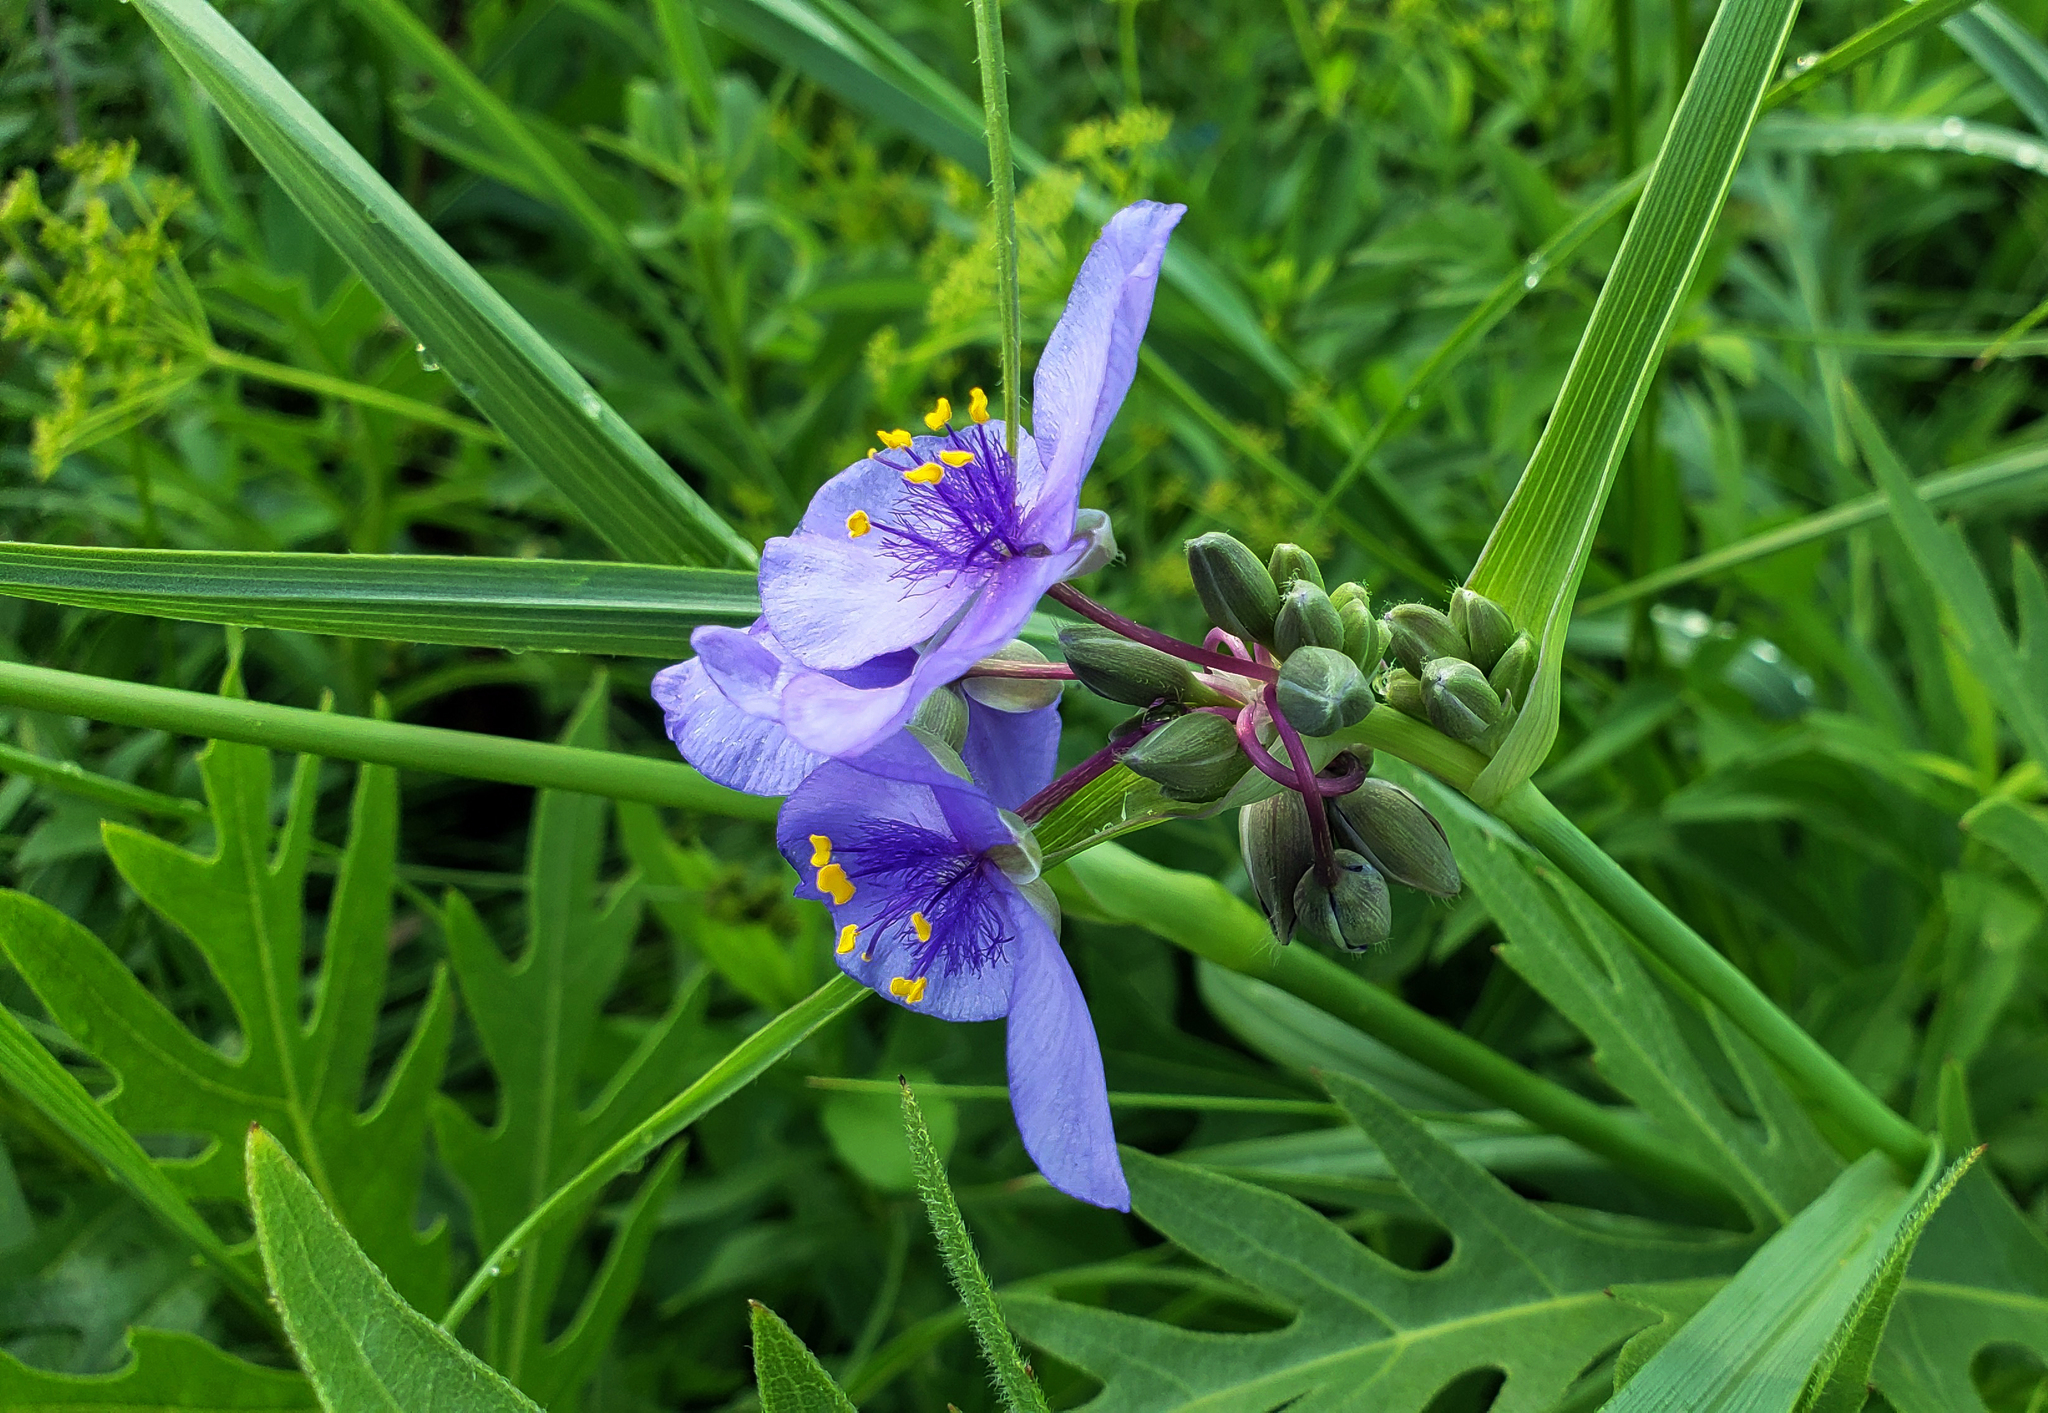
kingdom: Plantae
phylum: Tracheophyta
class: Liliopsida
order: Commelinales
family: Commelinaceae
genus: Tradescantia
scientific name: Tradescantia ohiensis
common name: Ohio spiderwort
